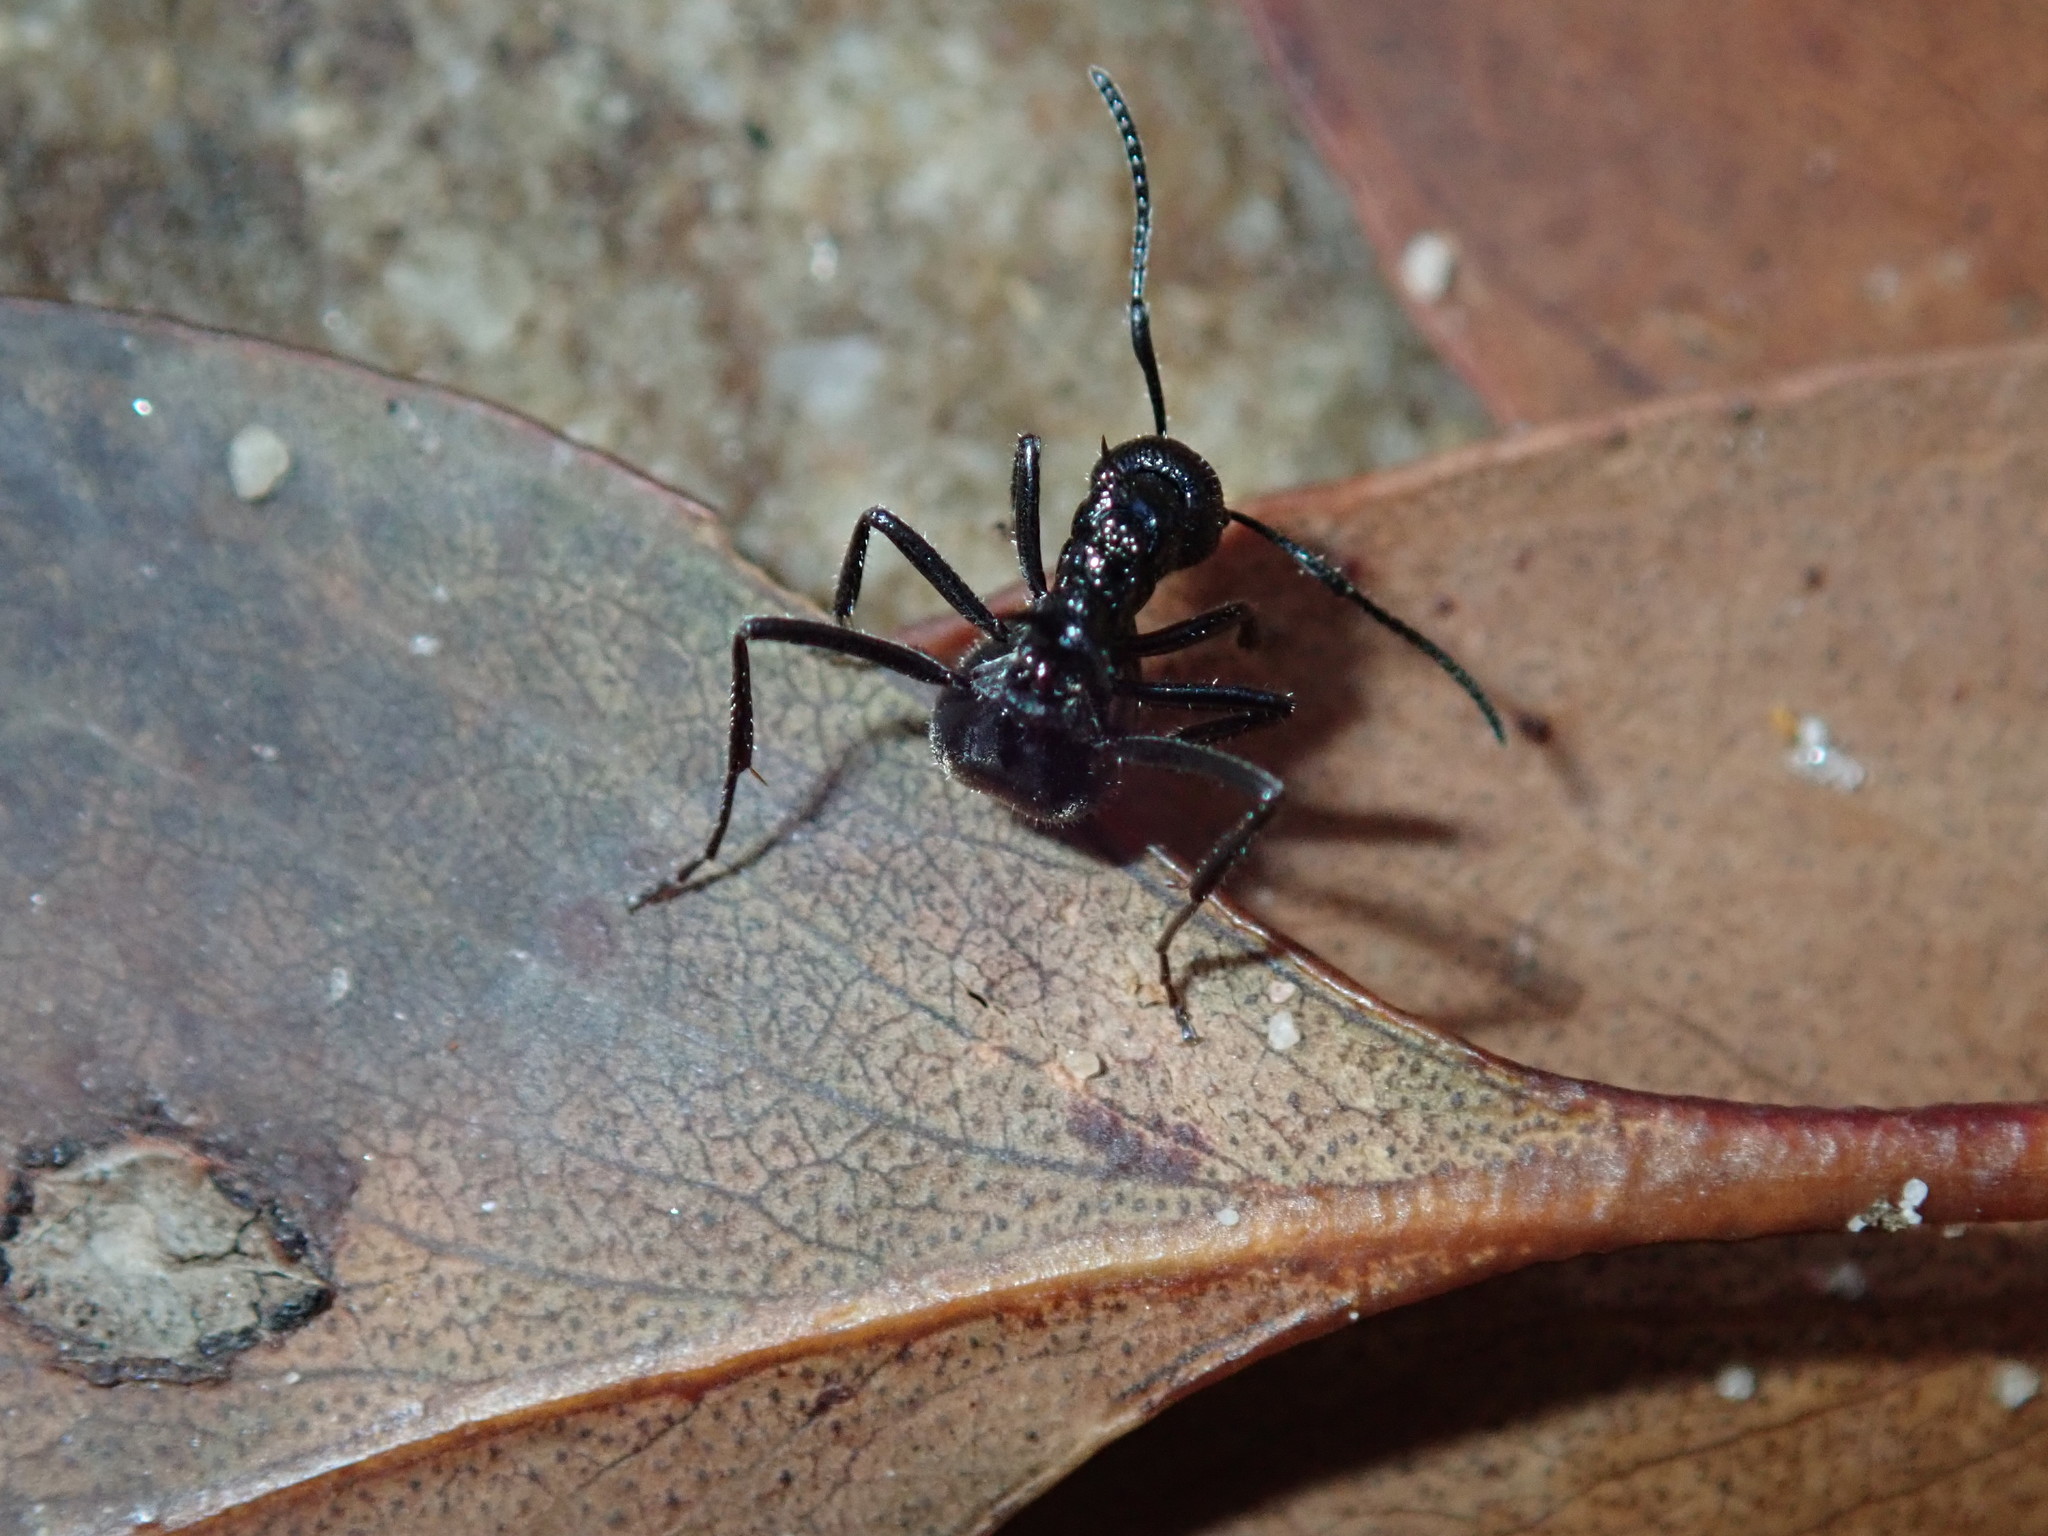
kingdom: Animalia
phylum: Arthropoda
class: Insecta
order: Hymenoptera
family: Formicidae
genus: Dolichoderus
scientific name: Dolichoderus clarki
